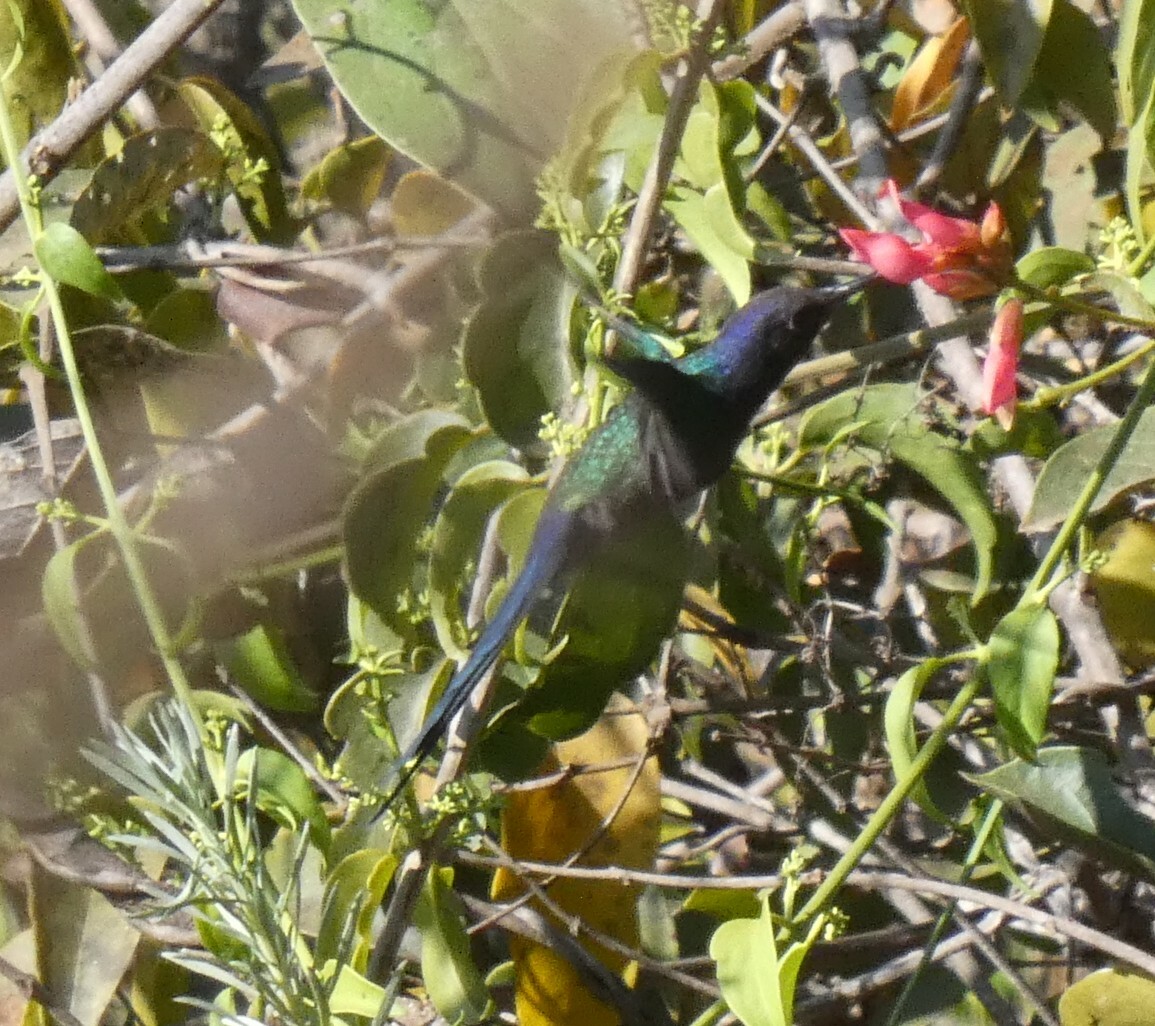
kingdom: Animalia
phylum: Chordata
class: Aves
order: Apodiformes
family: Trochilidae
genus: Eupetomena
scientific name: Eupetomena macroura
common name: Swallow-tailed hummingbird
